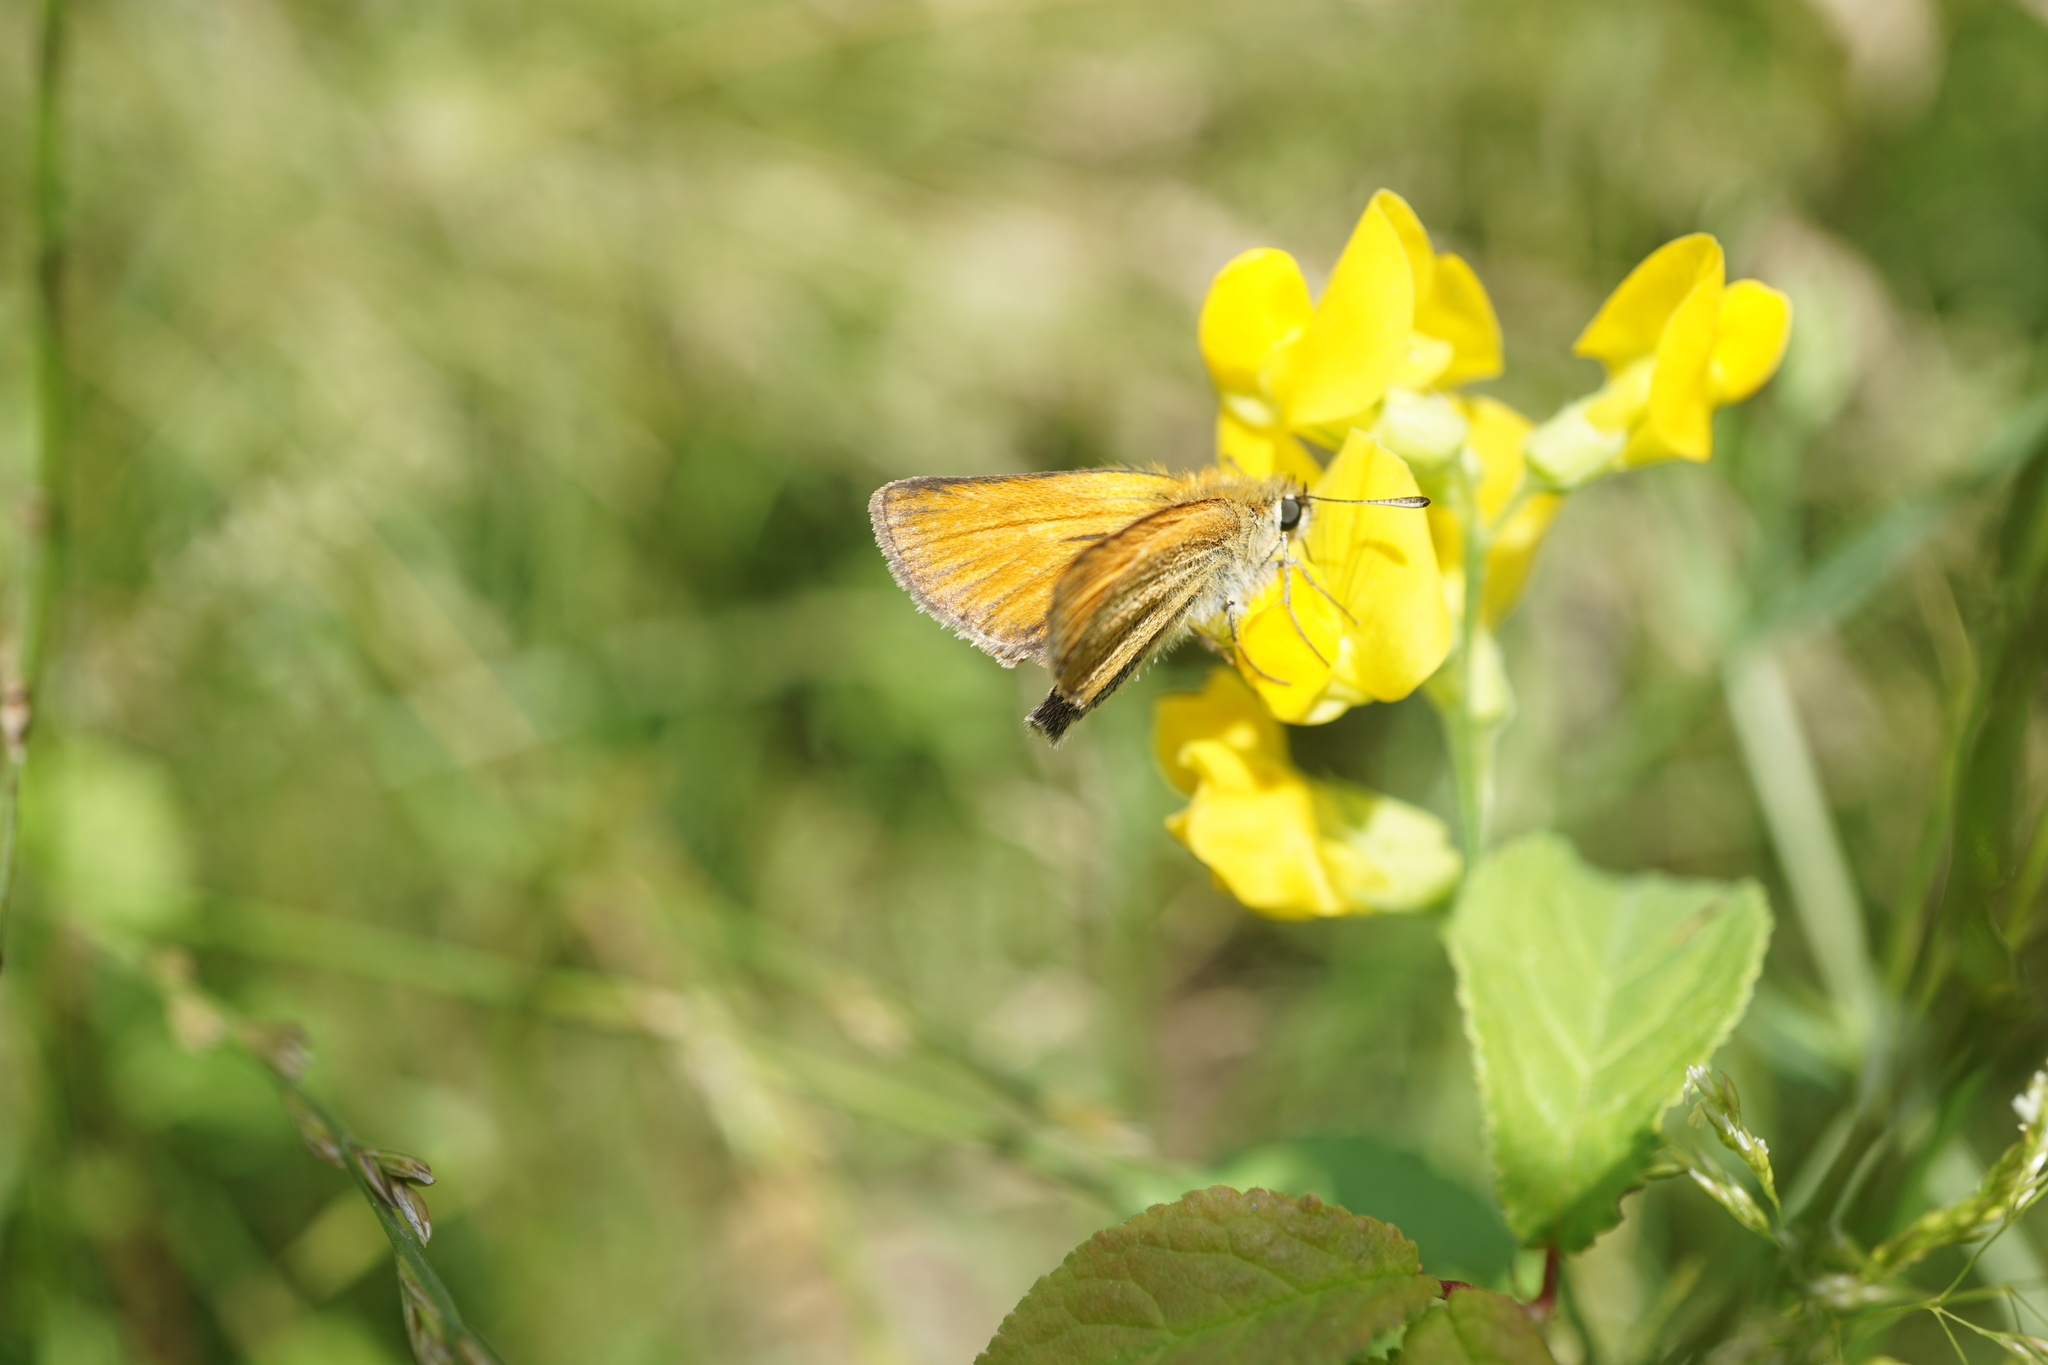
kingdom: Animalia
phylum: Arthropoda
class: Insecta
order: Lepidoptera
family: Hesperiidae
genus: Thymelicus
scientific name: Thymelicus lineola
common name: Essex skipper
